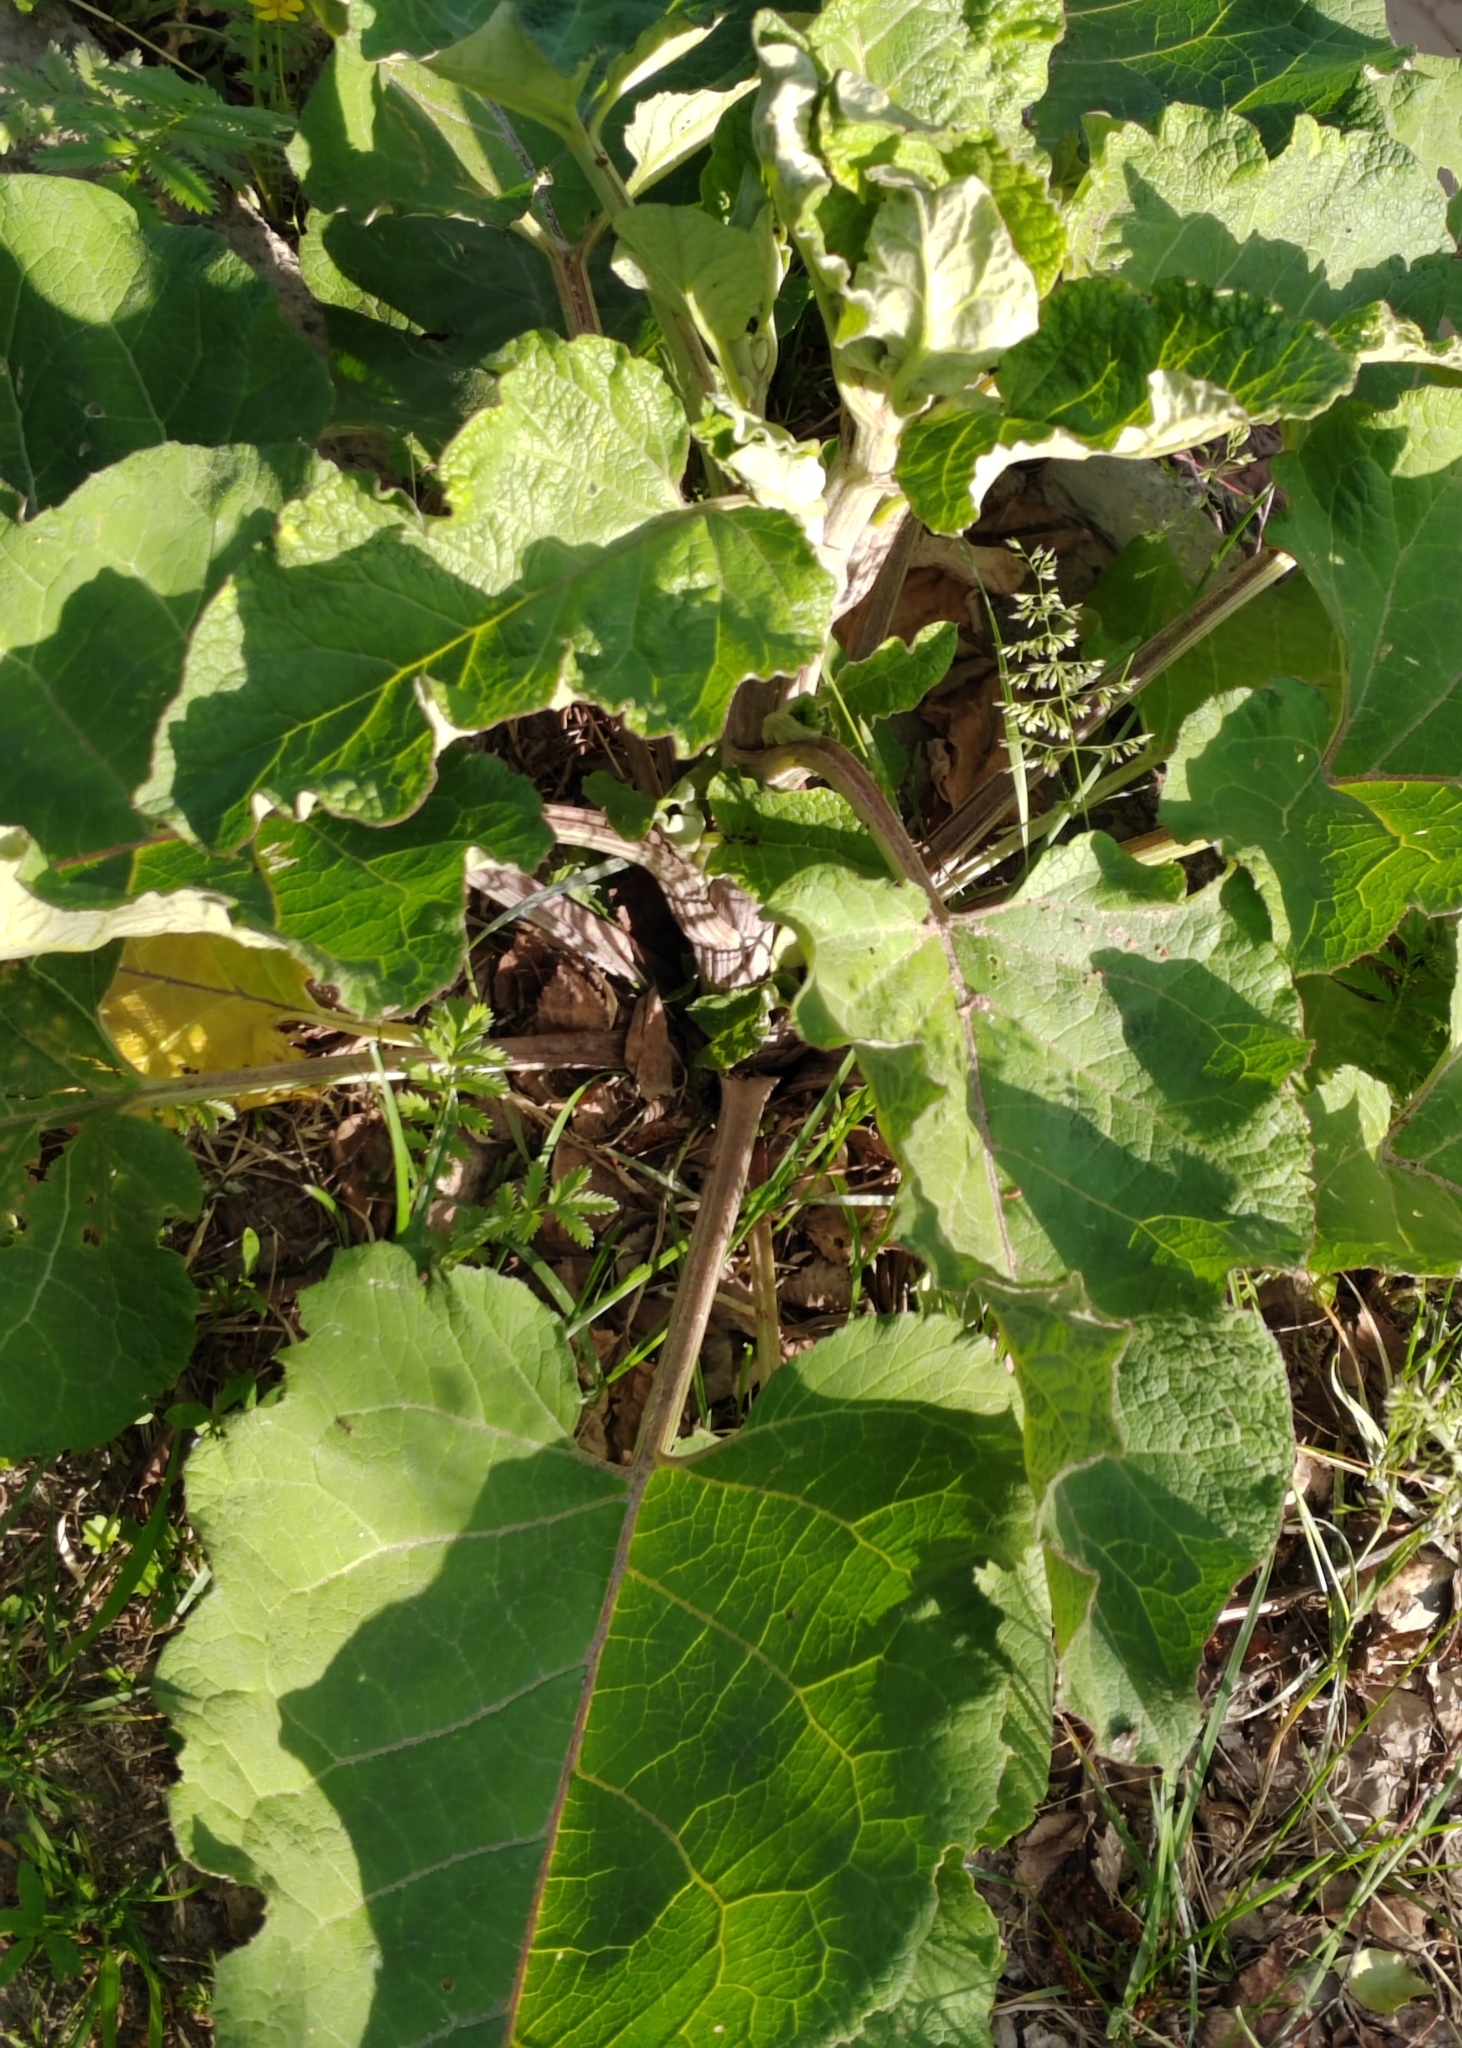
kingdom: Plantae
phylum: Tracheophyta
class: Magnoliopsida
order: Asterales
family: Asteraceae
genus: Arctium
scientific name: Arctium tomentosum
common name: Woolly burdock
